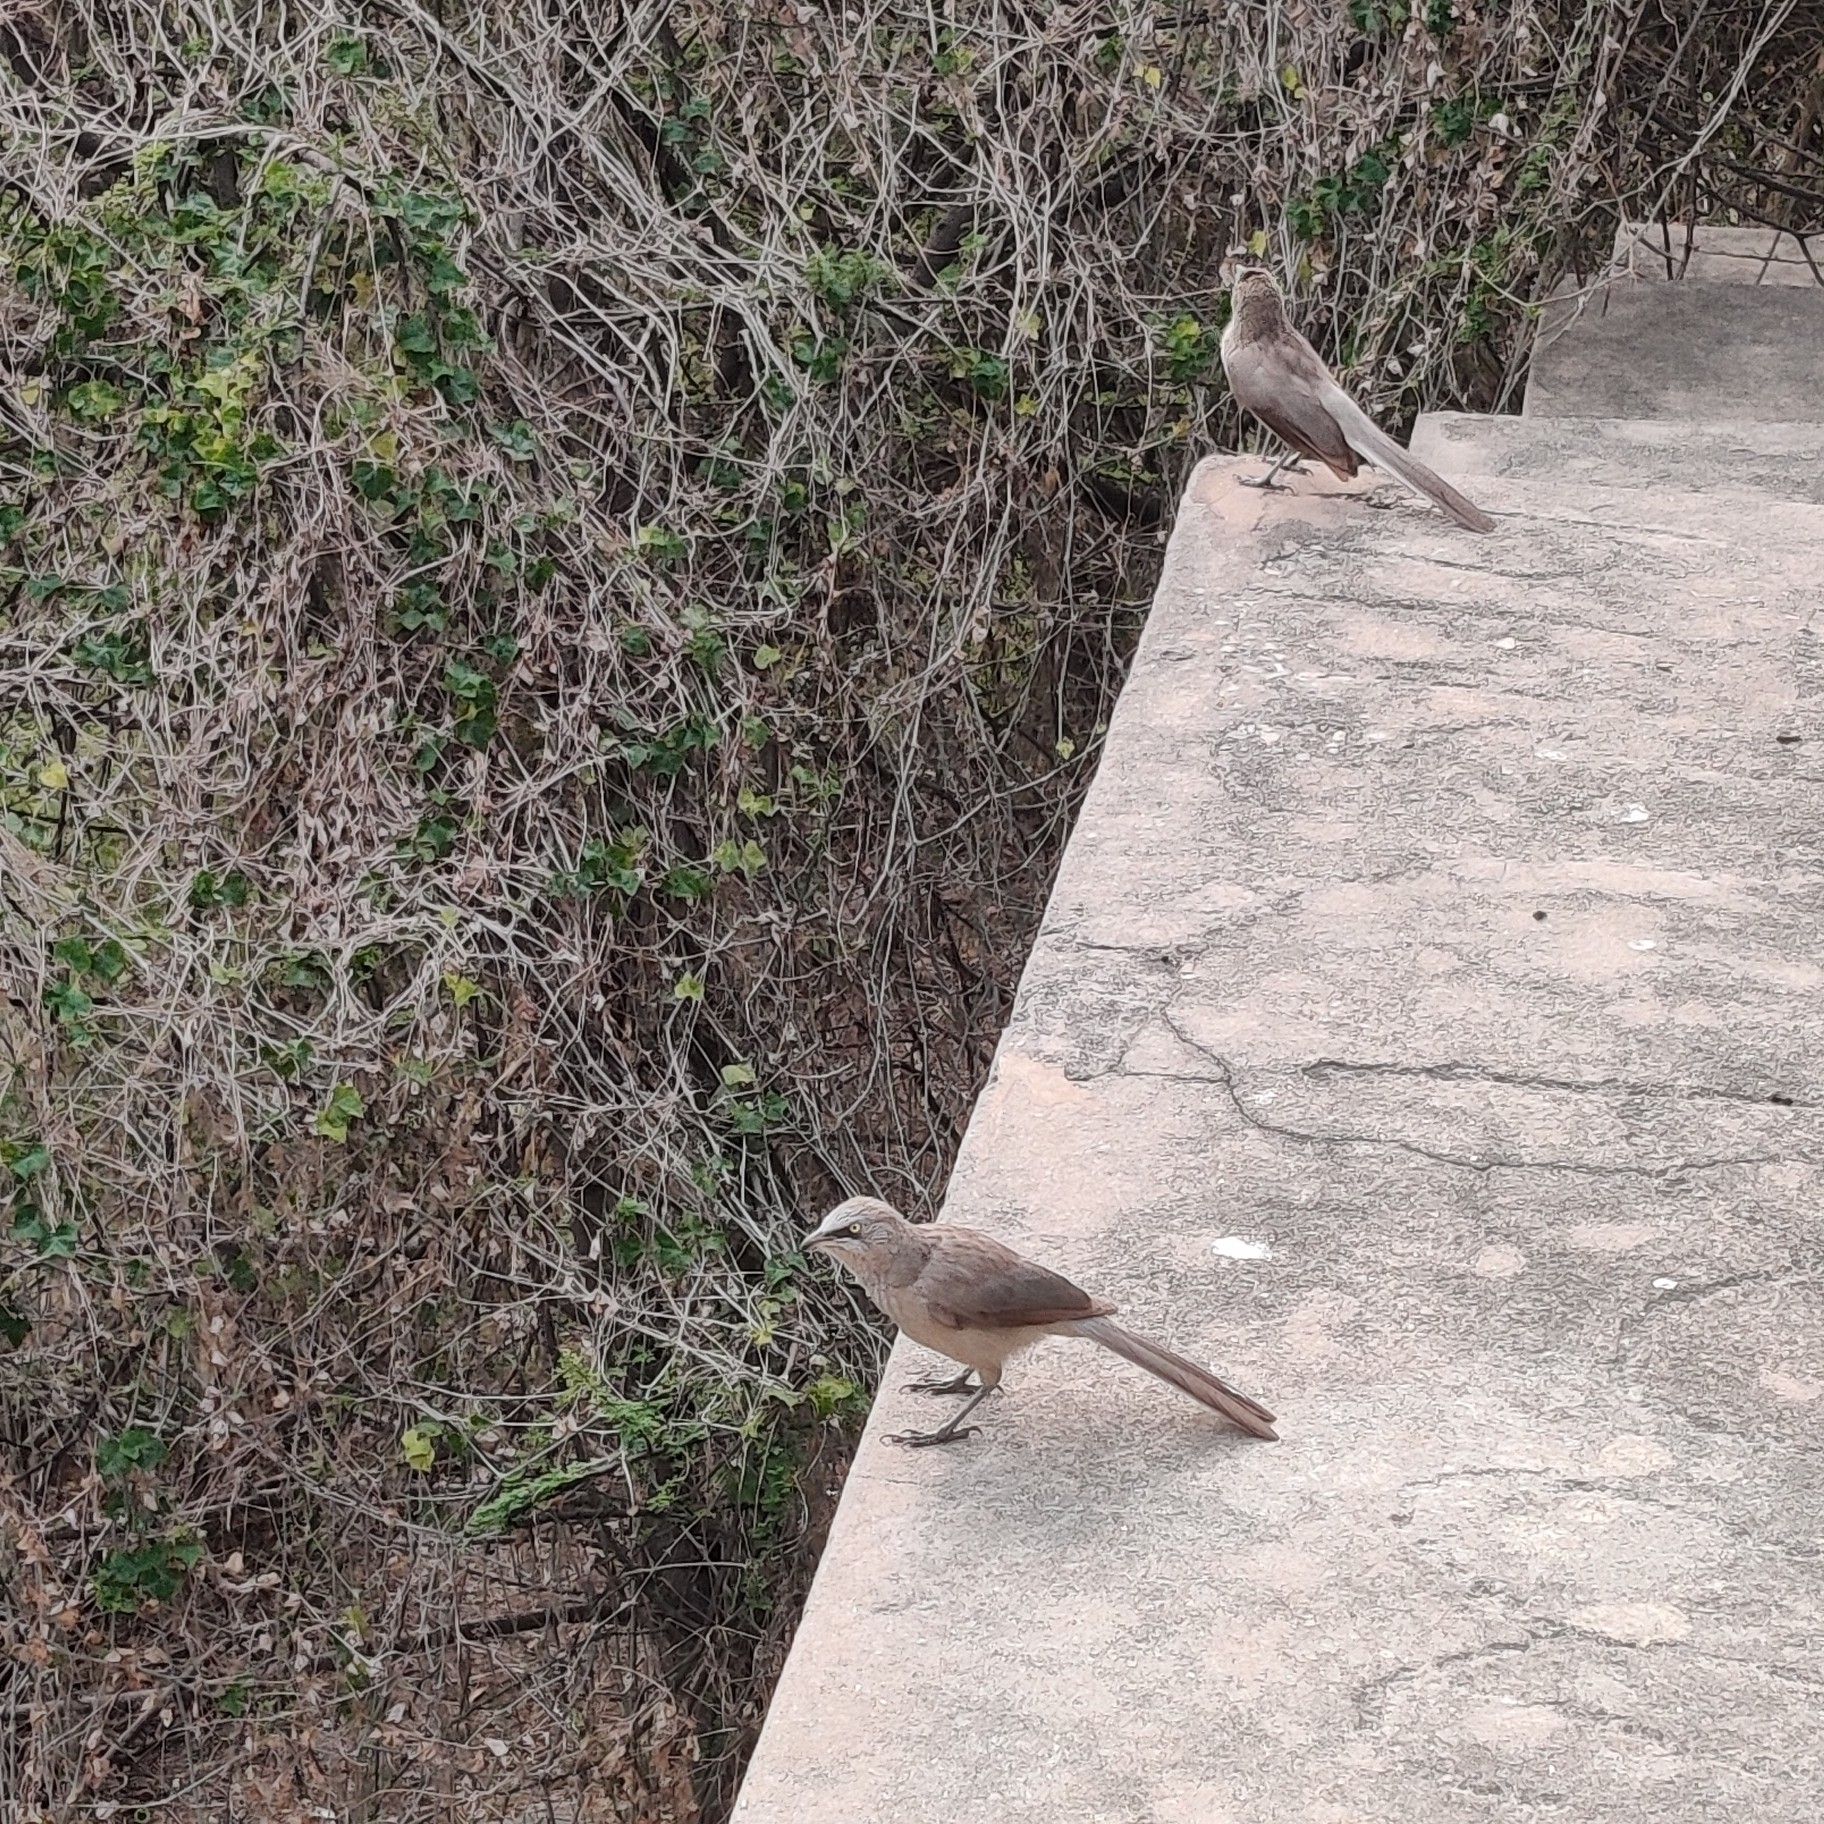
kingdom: Animalia
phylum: Chordata
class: Aves
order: Passeriformes
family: Leiothrichidae
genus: Turdoides
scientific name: Turdoides malcolmi
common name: Large grey babbler
